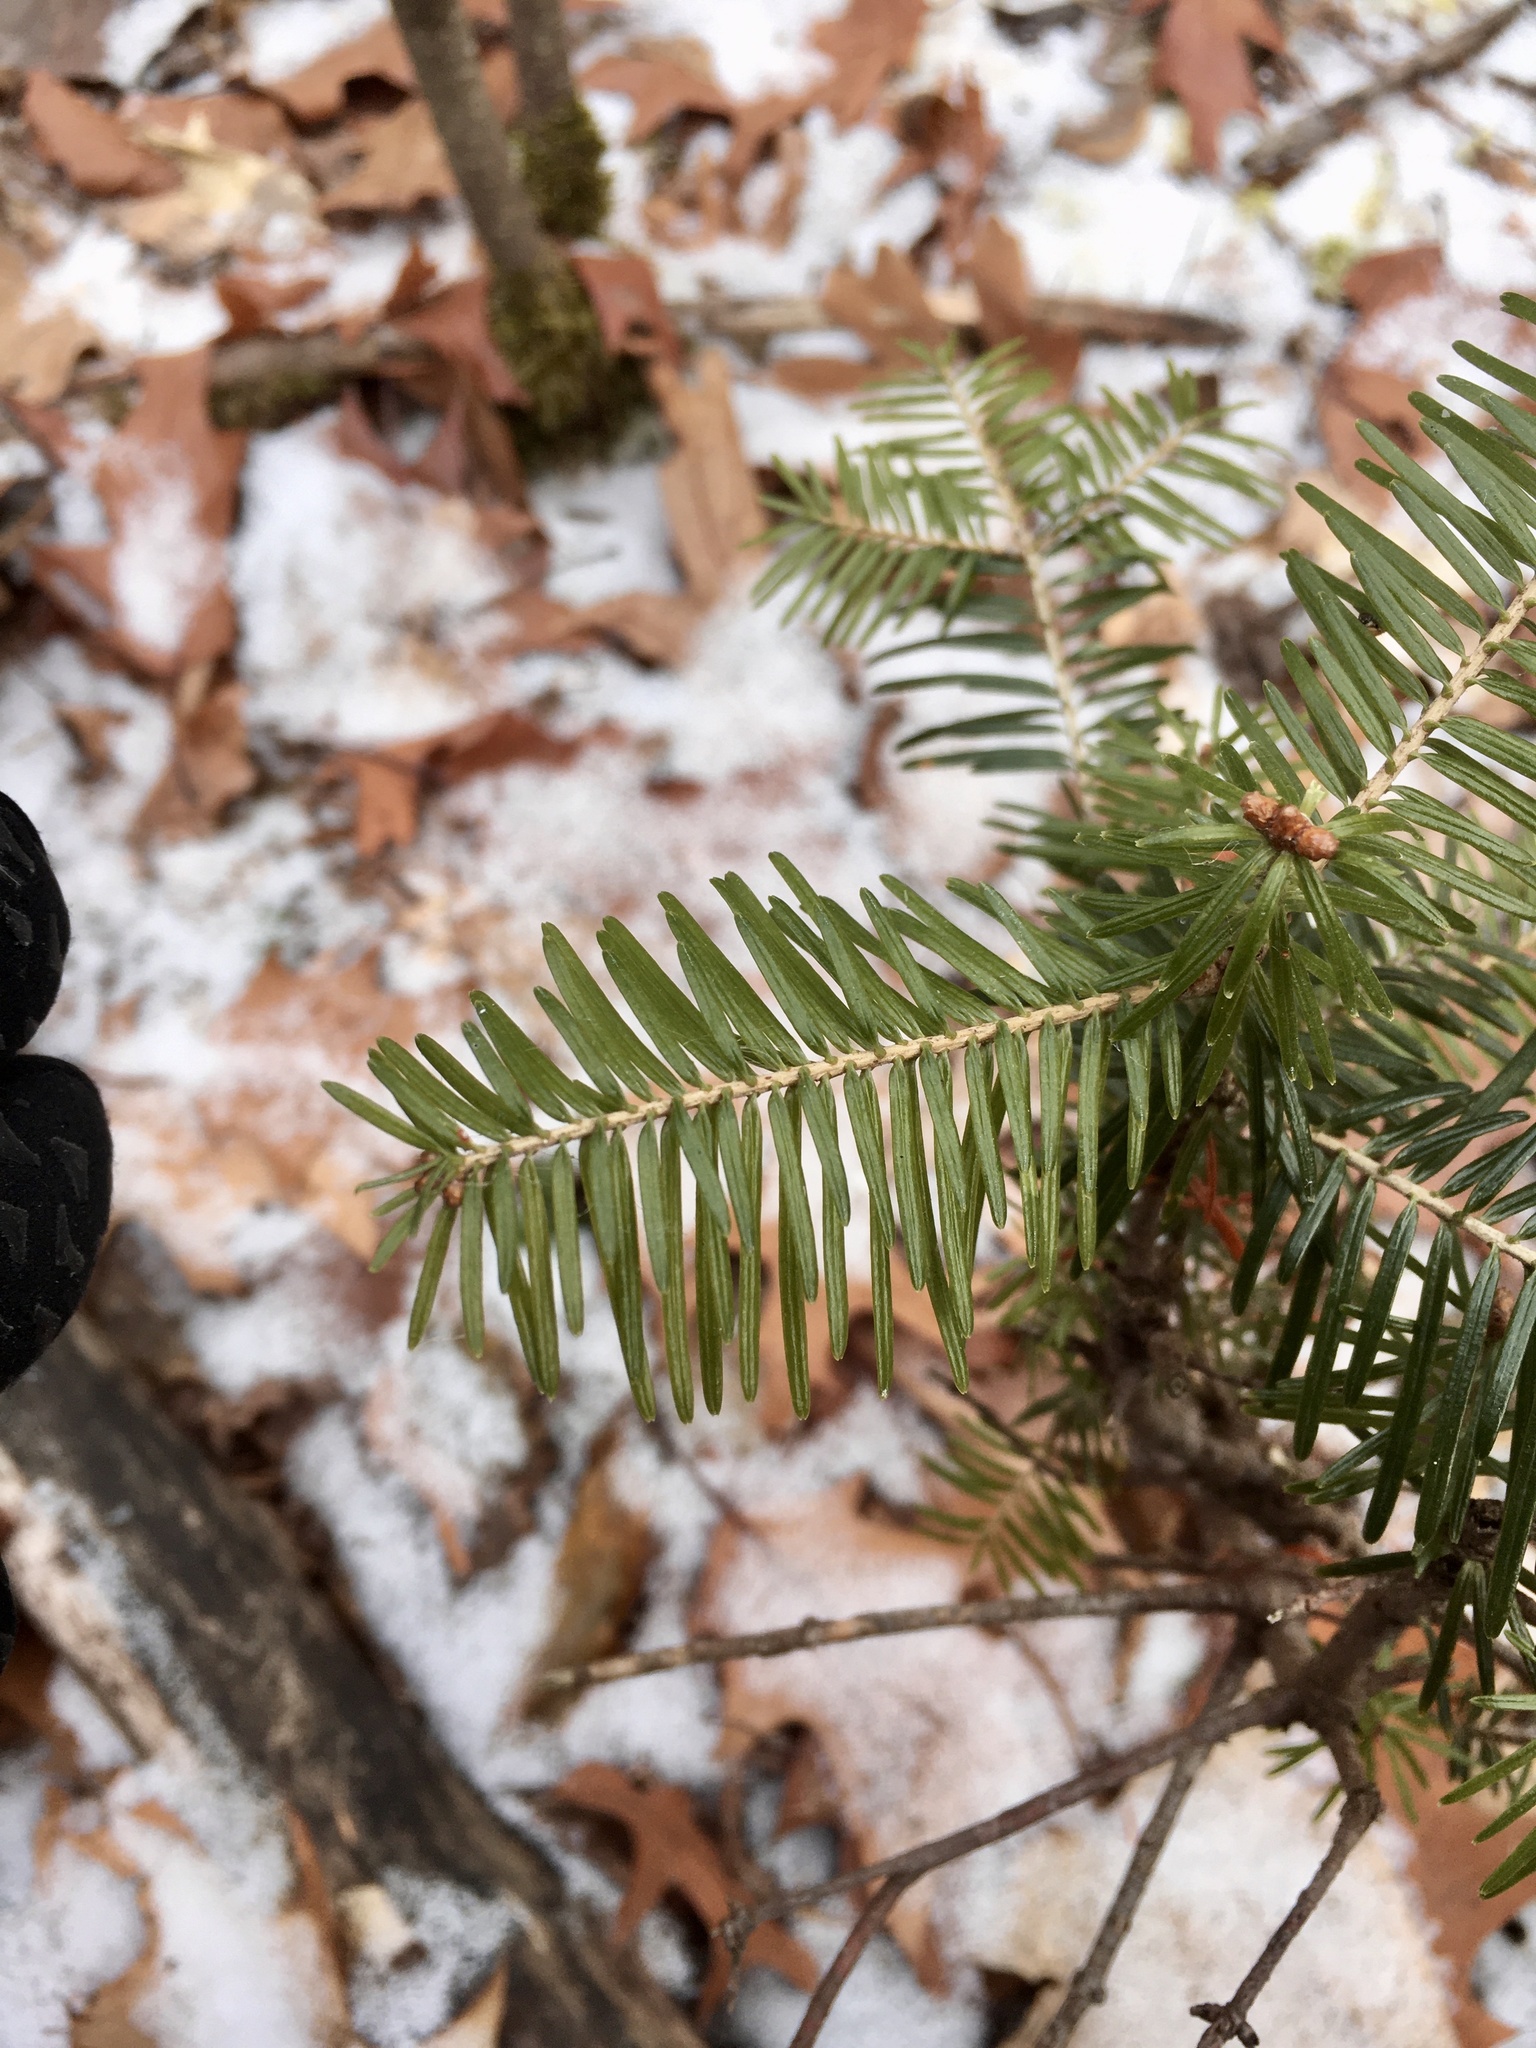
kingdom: Plantae
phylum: Tracheophyta
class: Pinopsida
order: Pinales
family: Pinaceae
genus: Abies
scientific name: Abies balsamea
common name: Balsam fir
